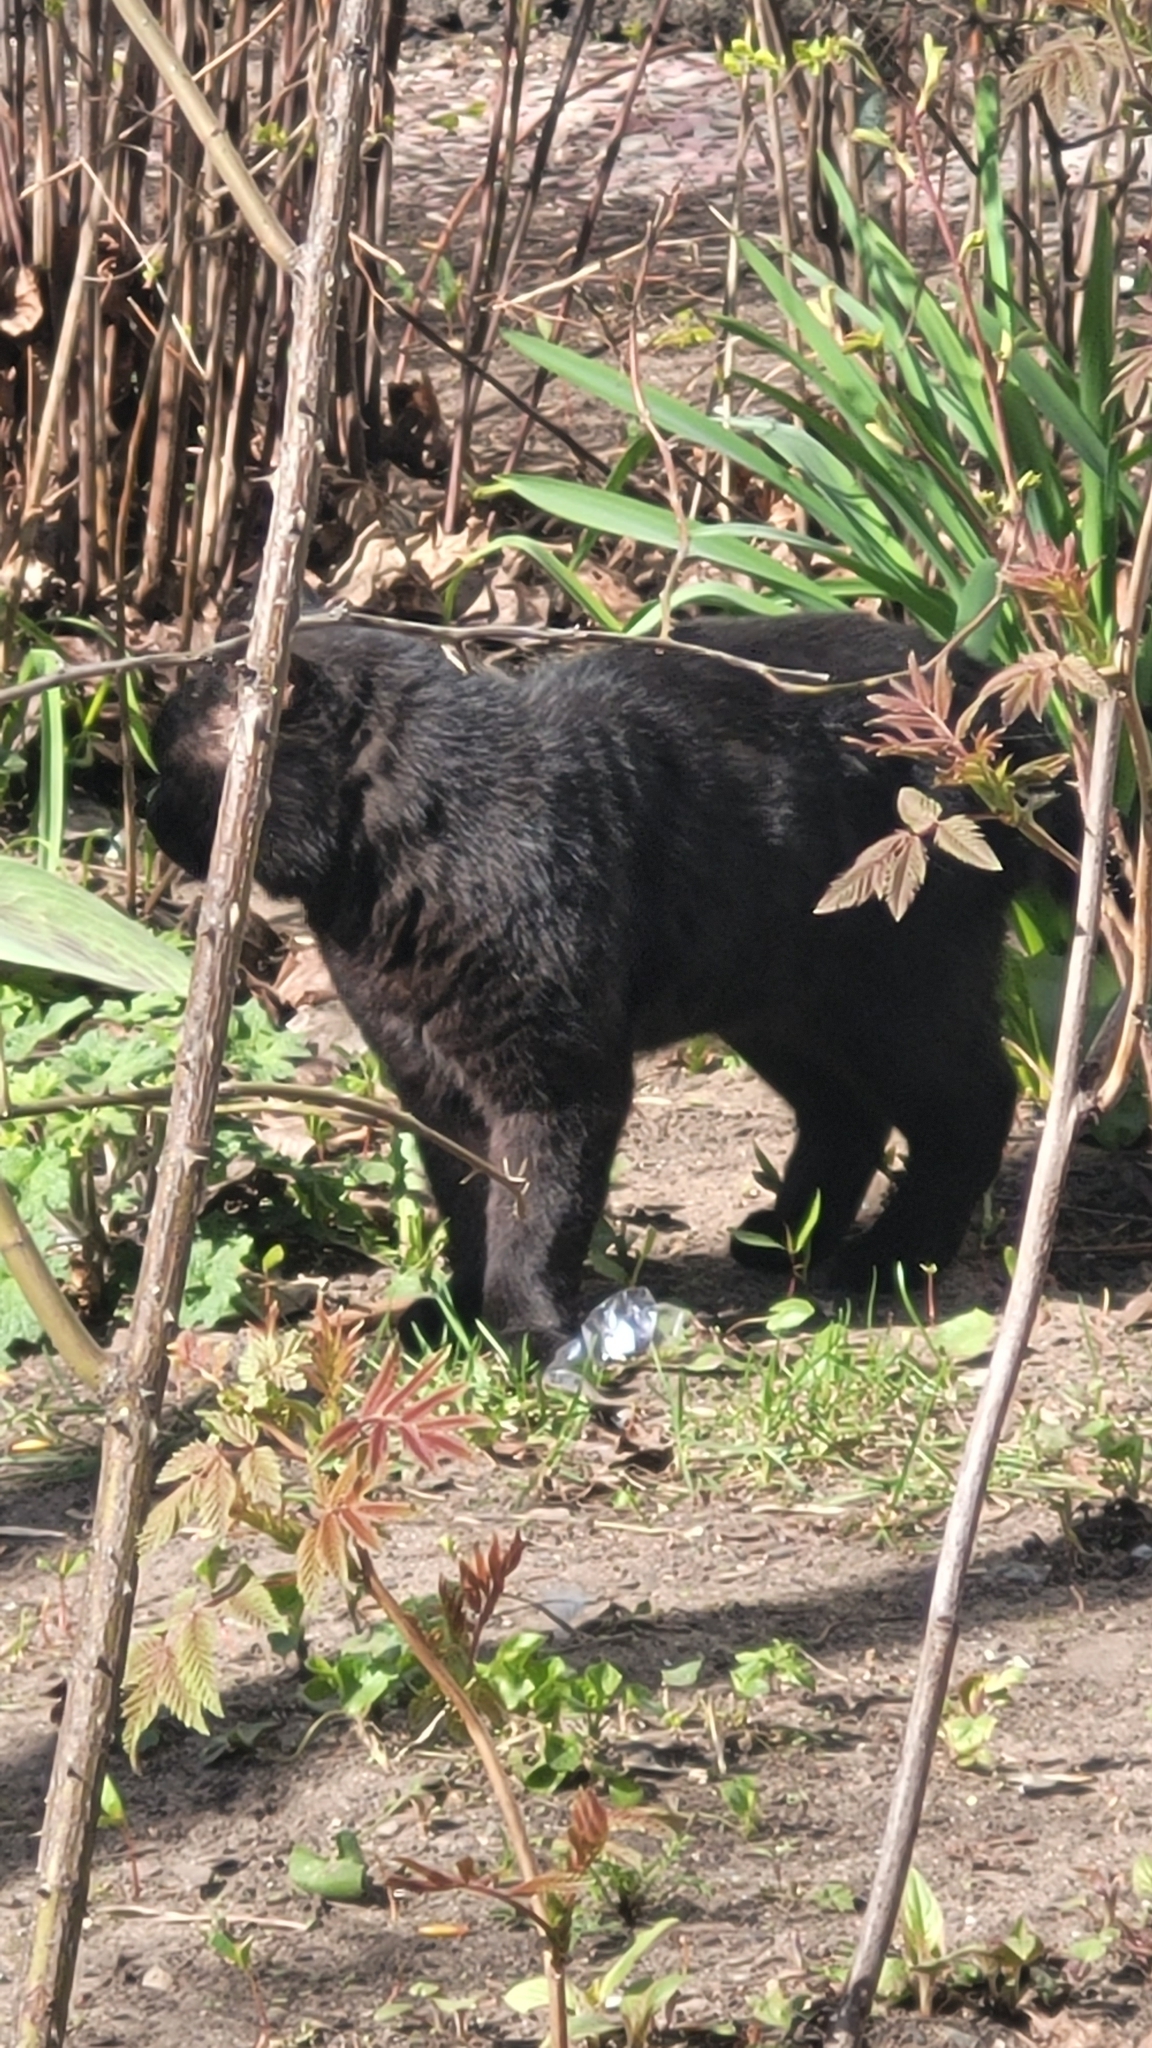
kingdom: Animalia
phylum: Chordata
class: Mammalia
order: Carnivora
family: Felidae
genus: Felis
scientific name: Felis catus
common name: Domestic cat
